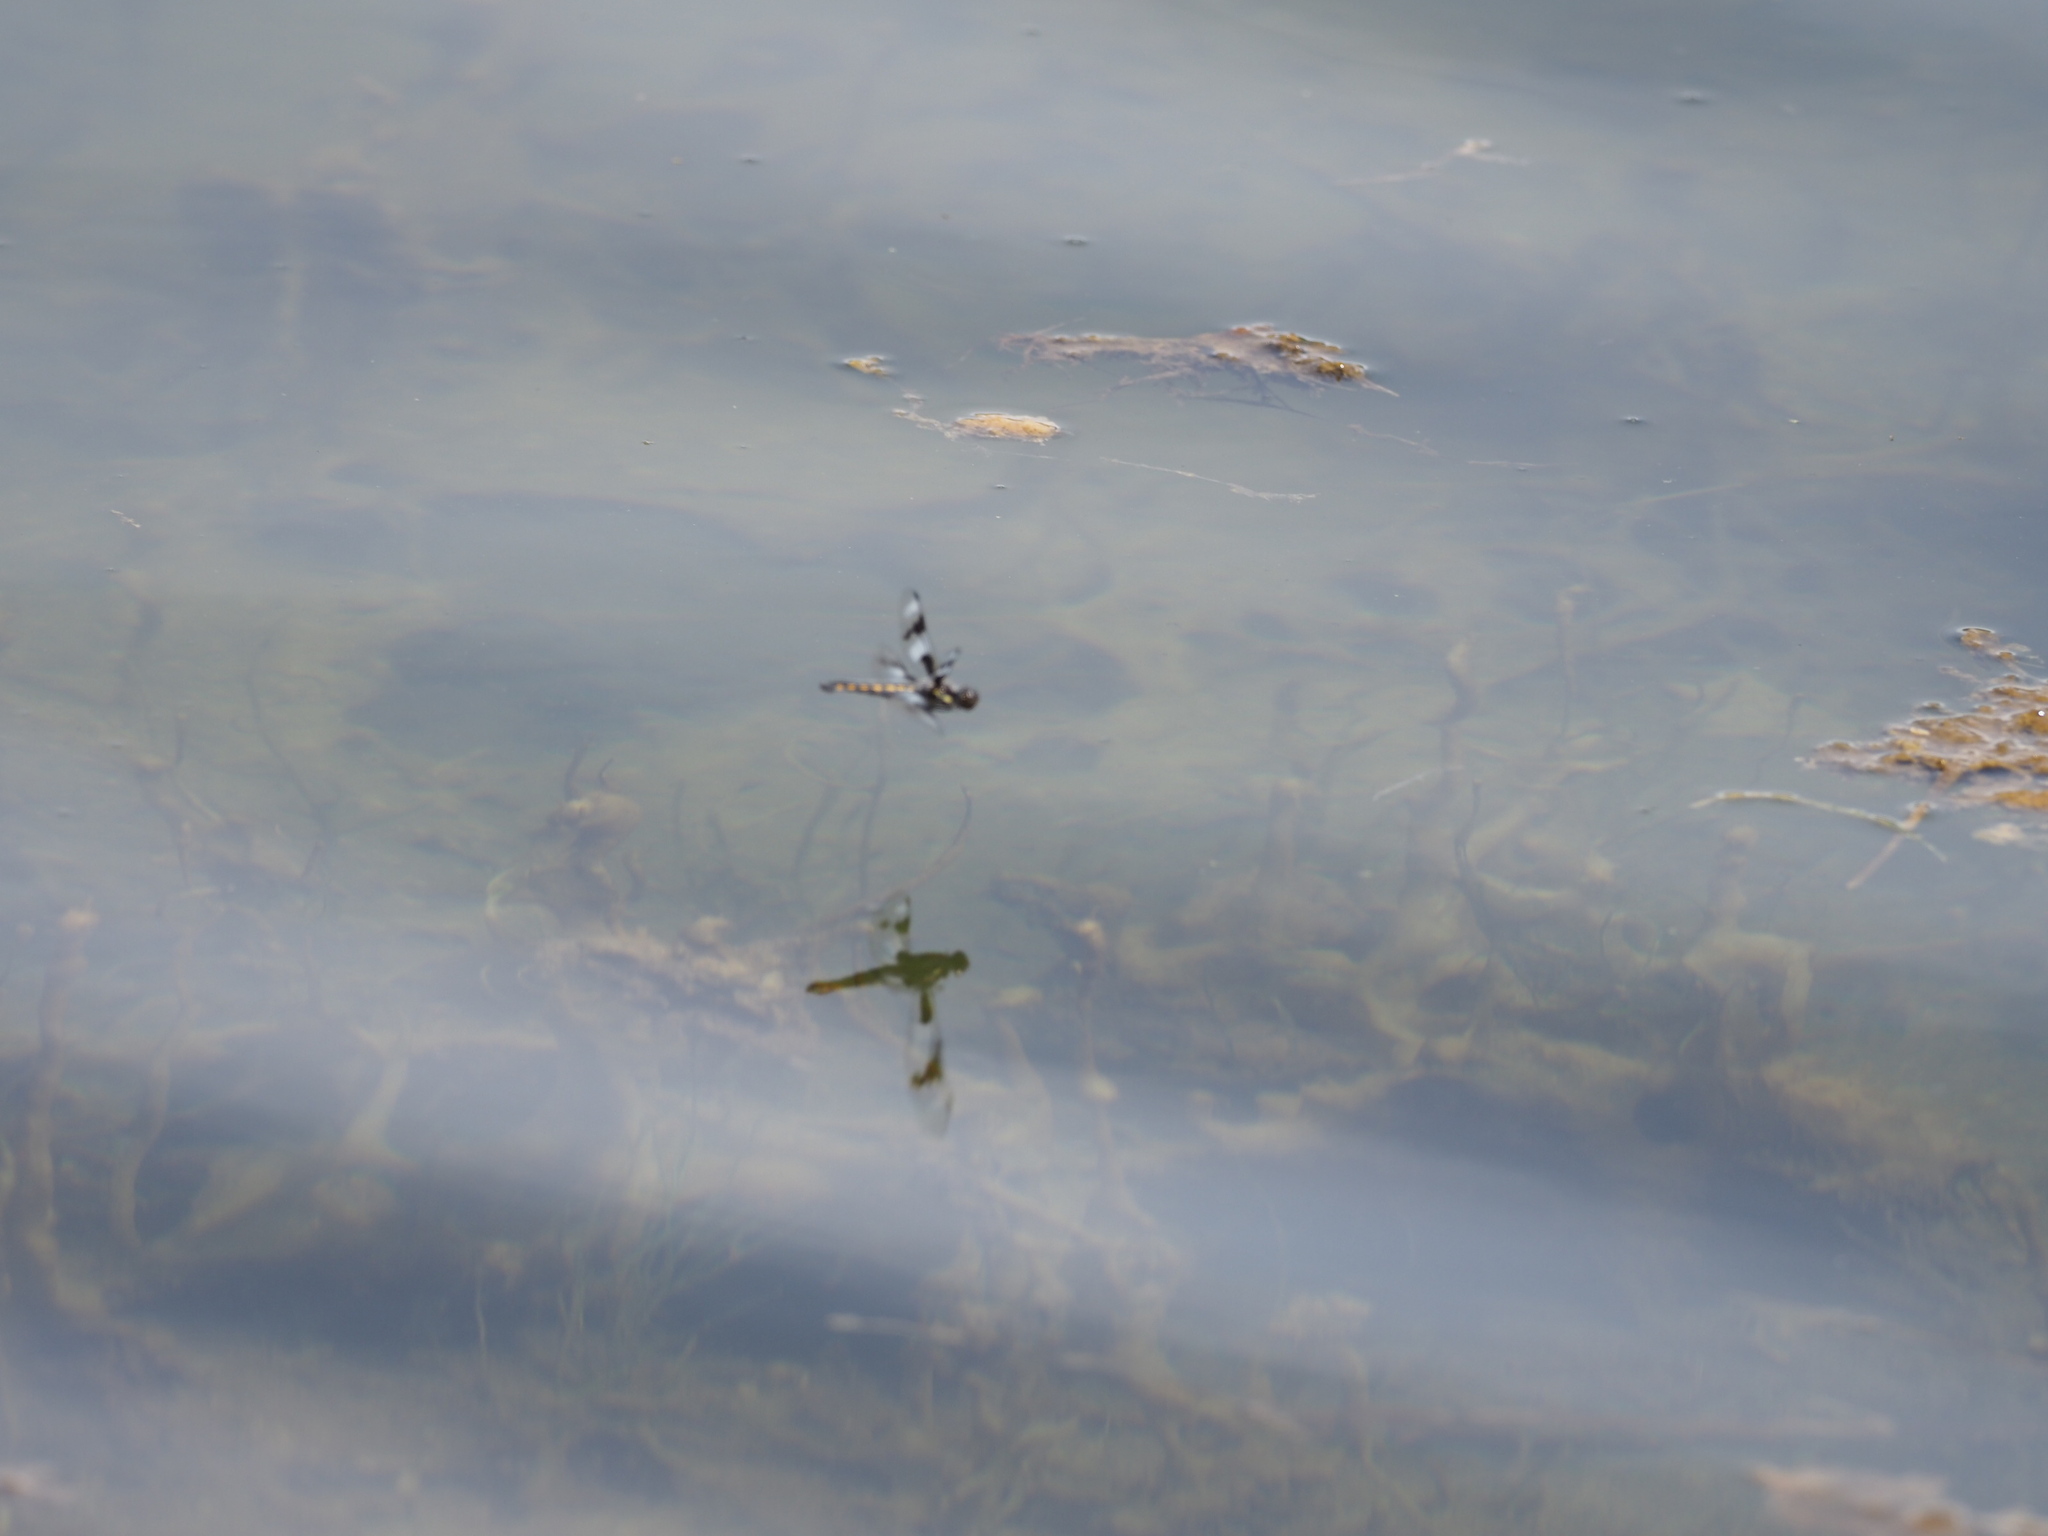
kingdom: Animalia
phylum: Arthropoda
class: Insecta
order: Odonata
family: Libellulidae
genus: Libellula
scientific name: Libellula forensis
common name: Eight-spotted skimmer
